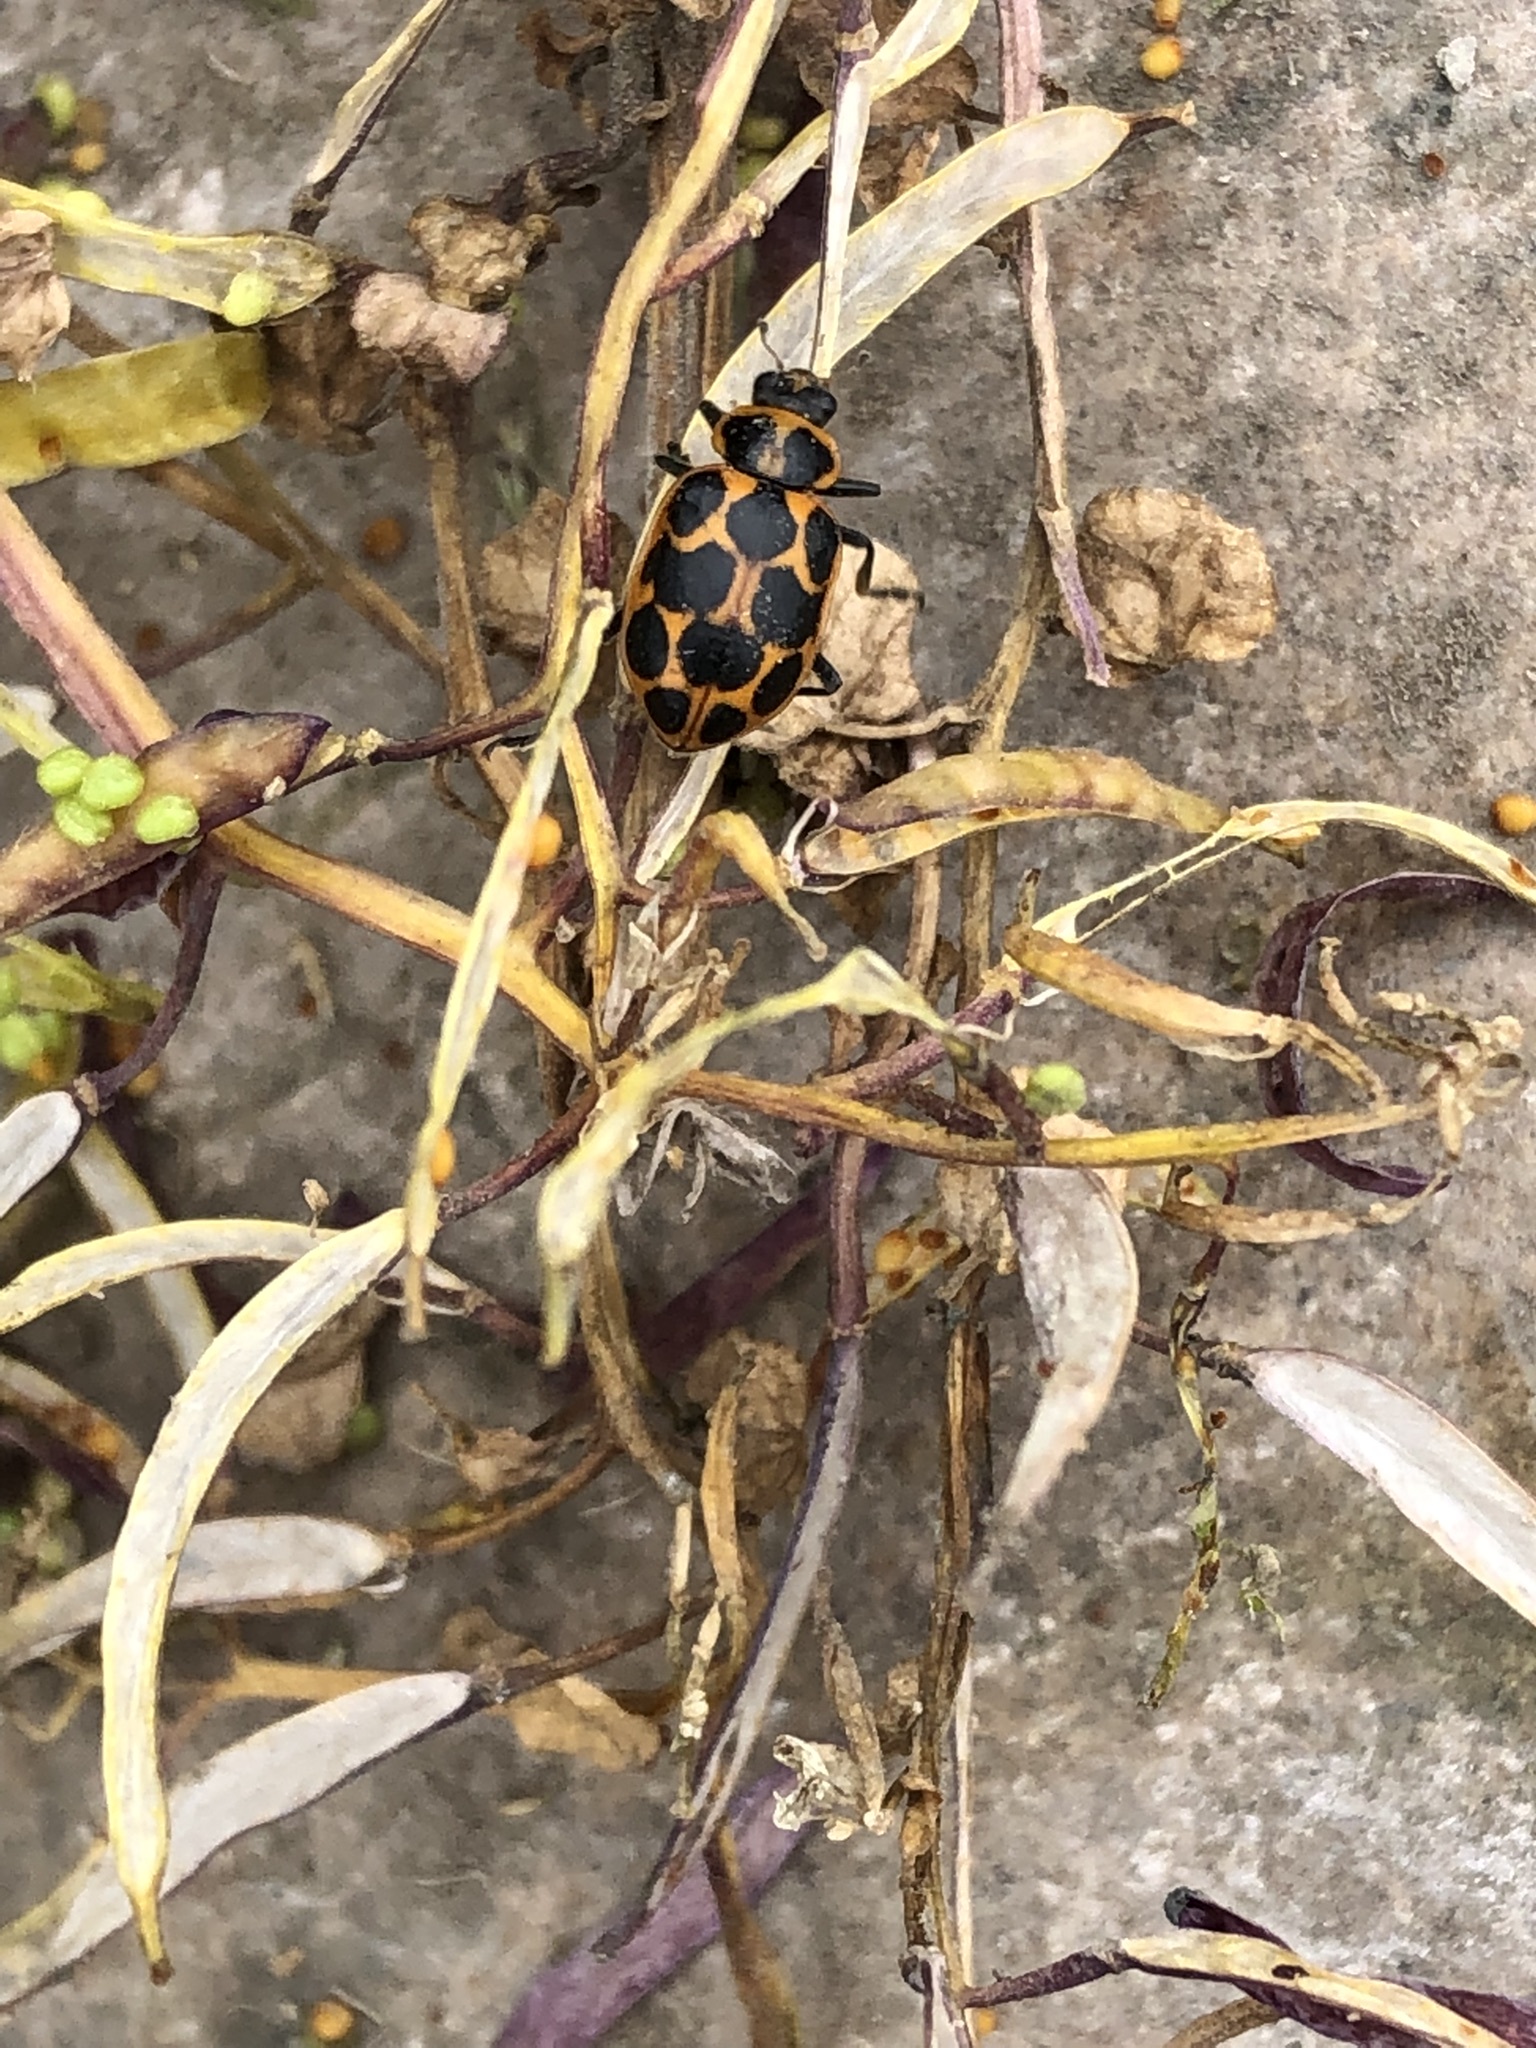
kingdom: Animalia
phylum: Arthropoda
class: Insecta
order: Coleoptera
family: Coccinellidae
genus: Coleomegilla
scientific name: Coleomegilla maculata
